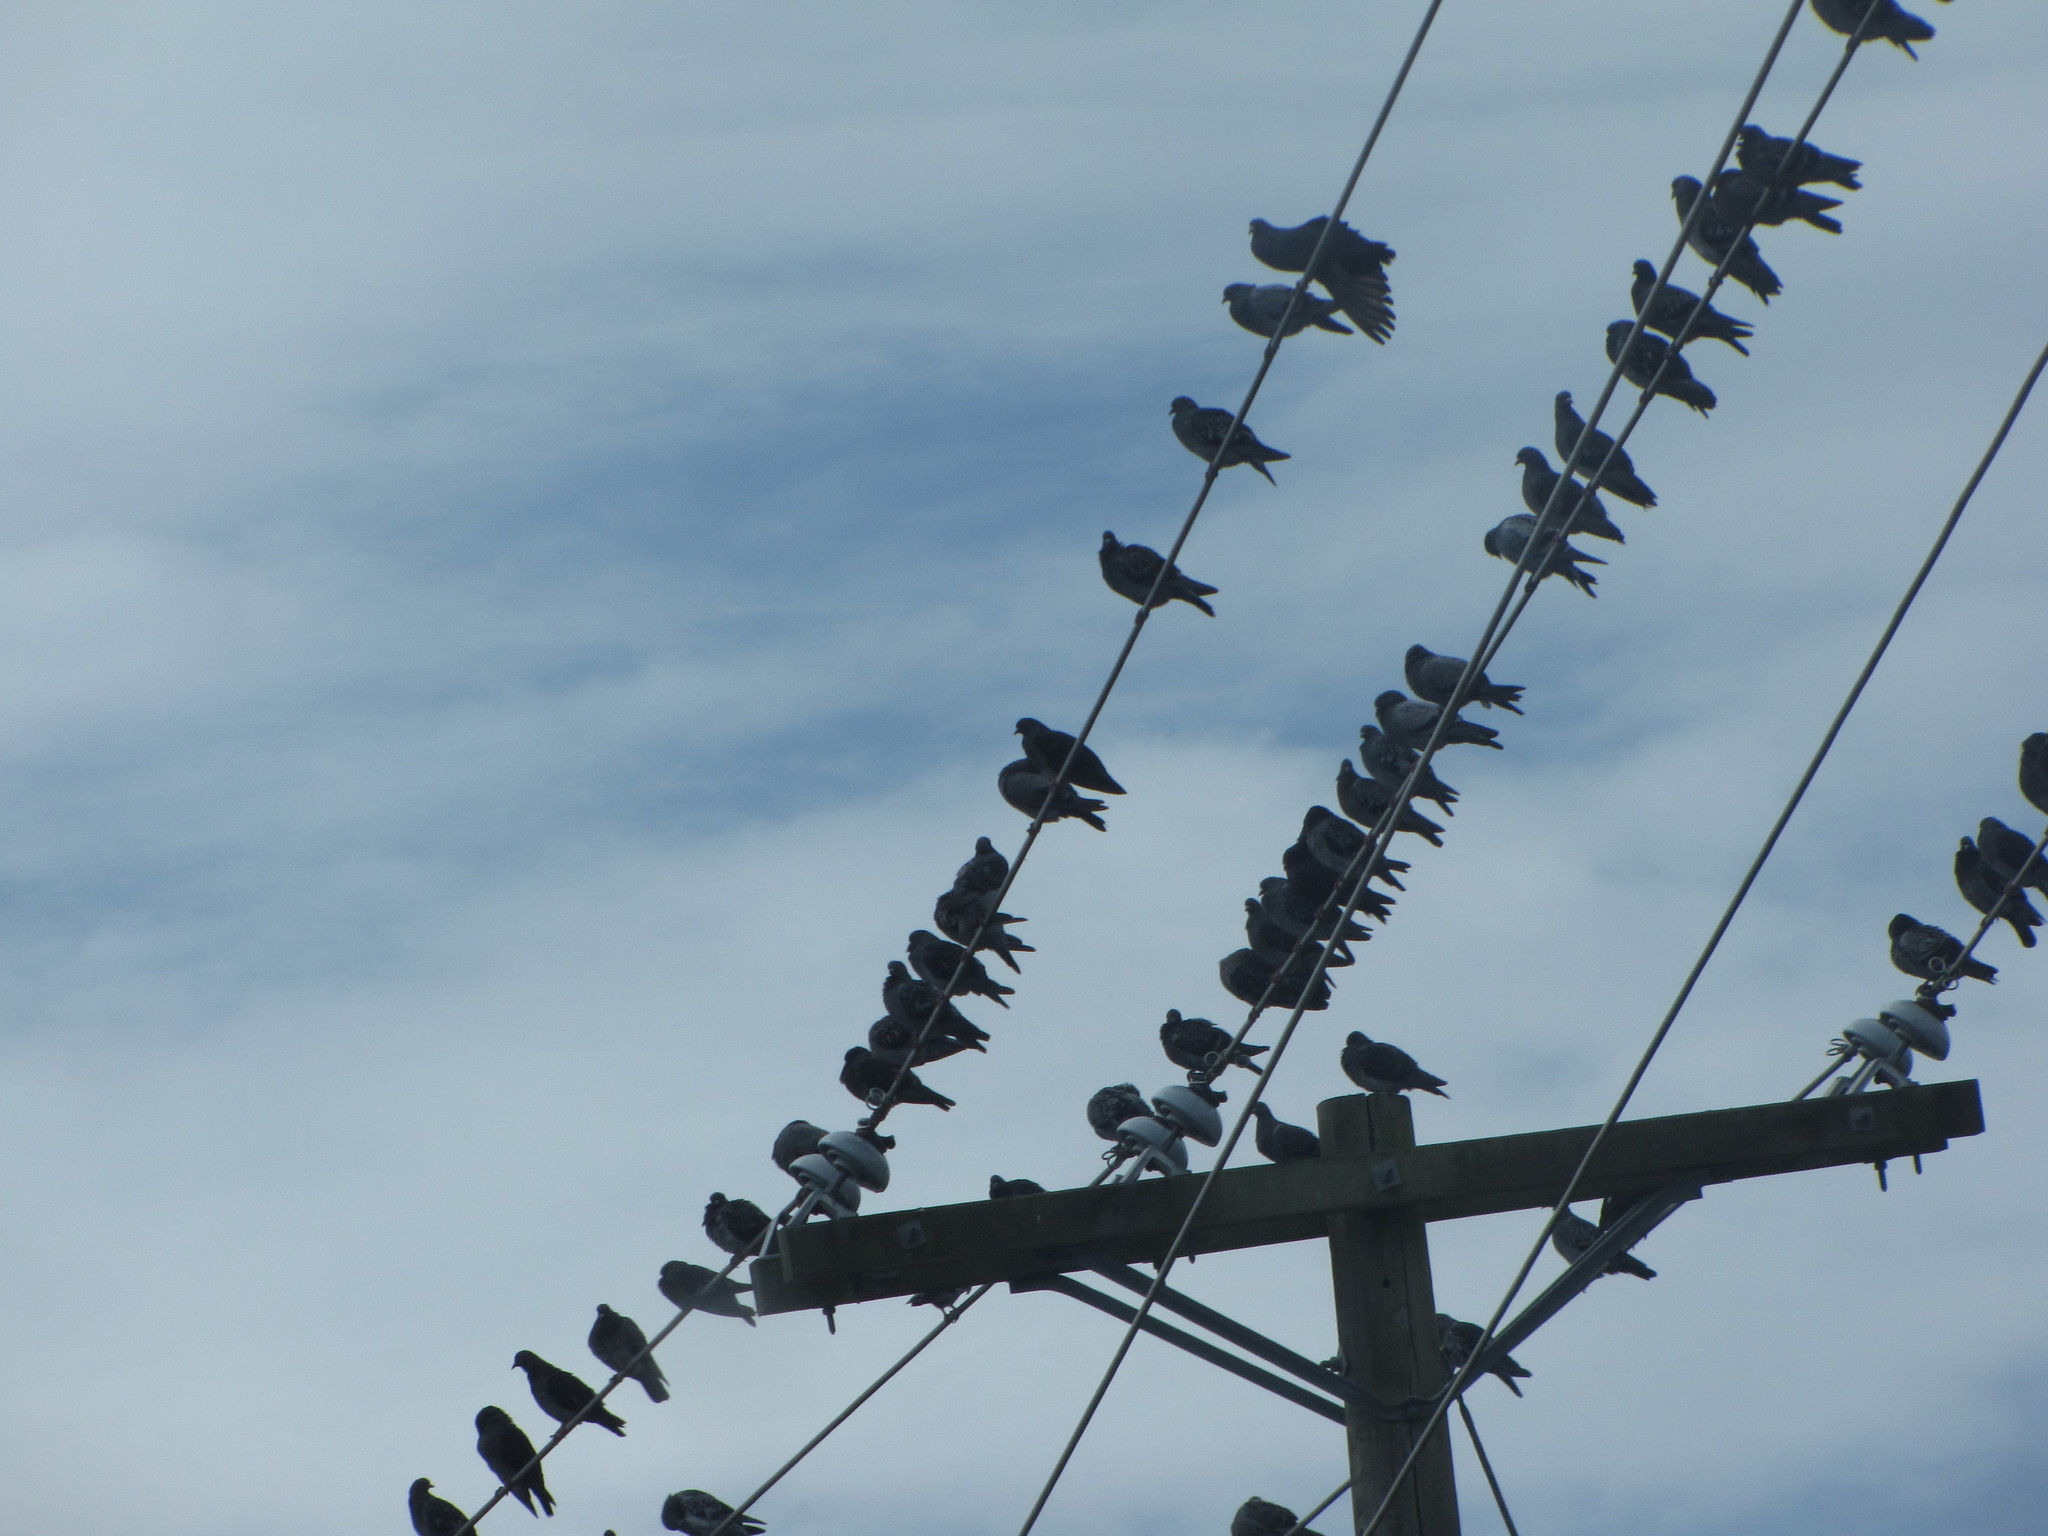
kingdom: Animalia
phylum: Chordata
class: Aves
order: Columbiformes
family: Columbidae
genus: Columba
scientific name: Columba livia
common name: Rock pigeon
